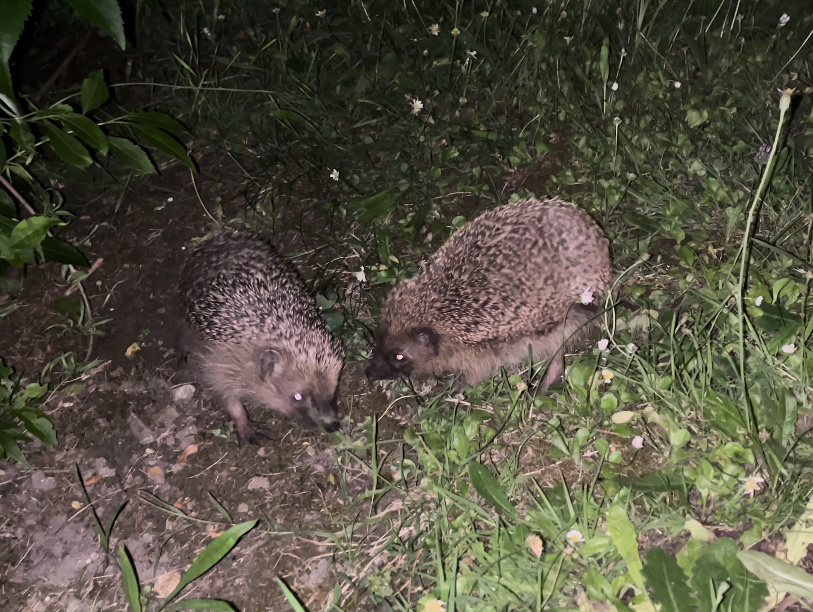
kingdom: Animalia
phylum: Chordata
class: Mammalia
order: Erinaceomorpha
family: Erinaceidae
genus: Erinaceus
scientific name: Erinaceus europaeus
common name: West european hedgehog
